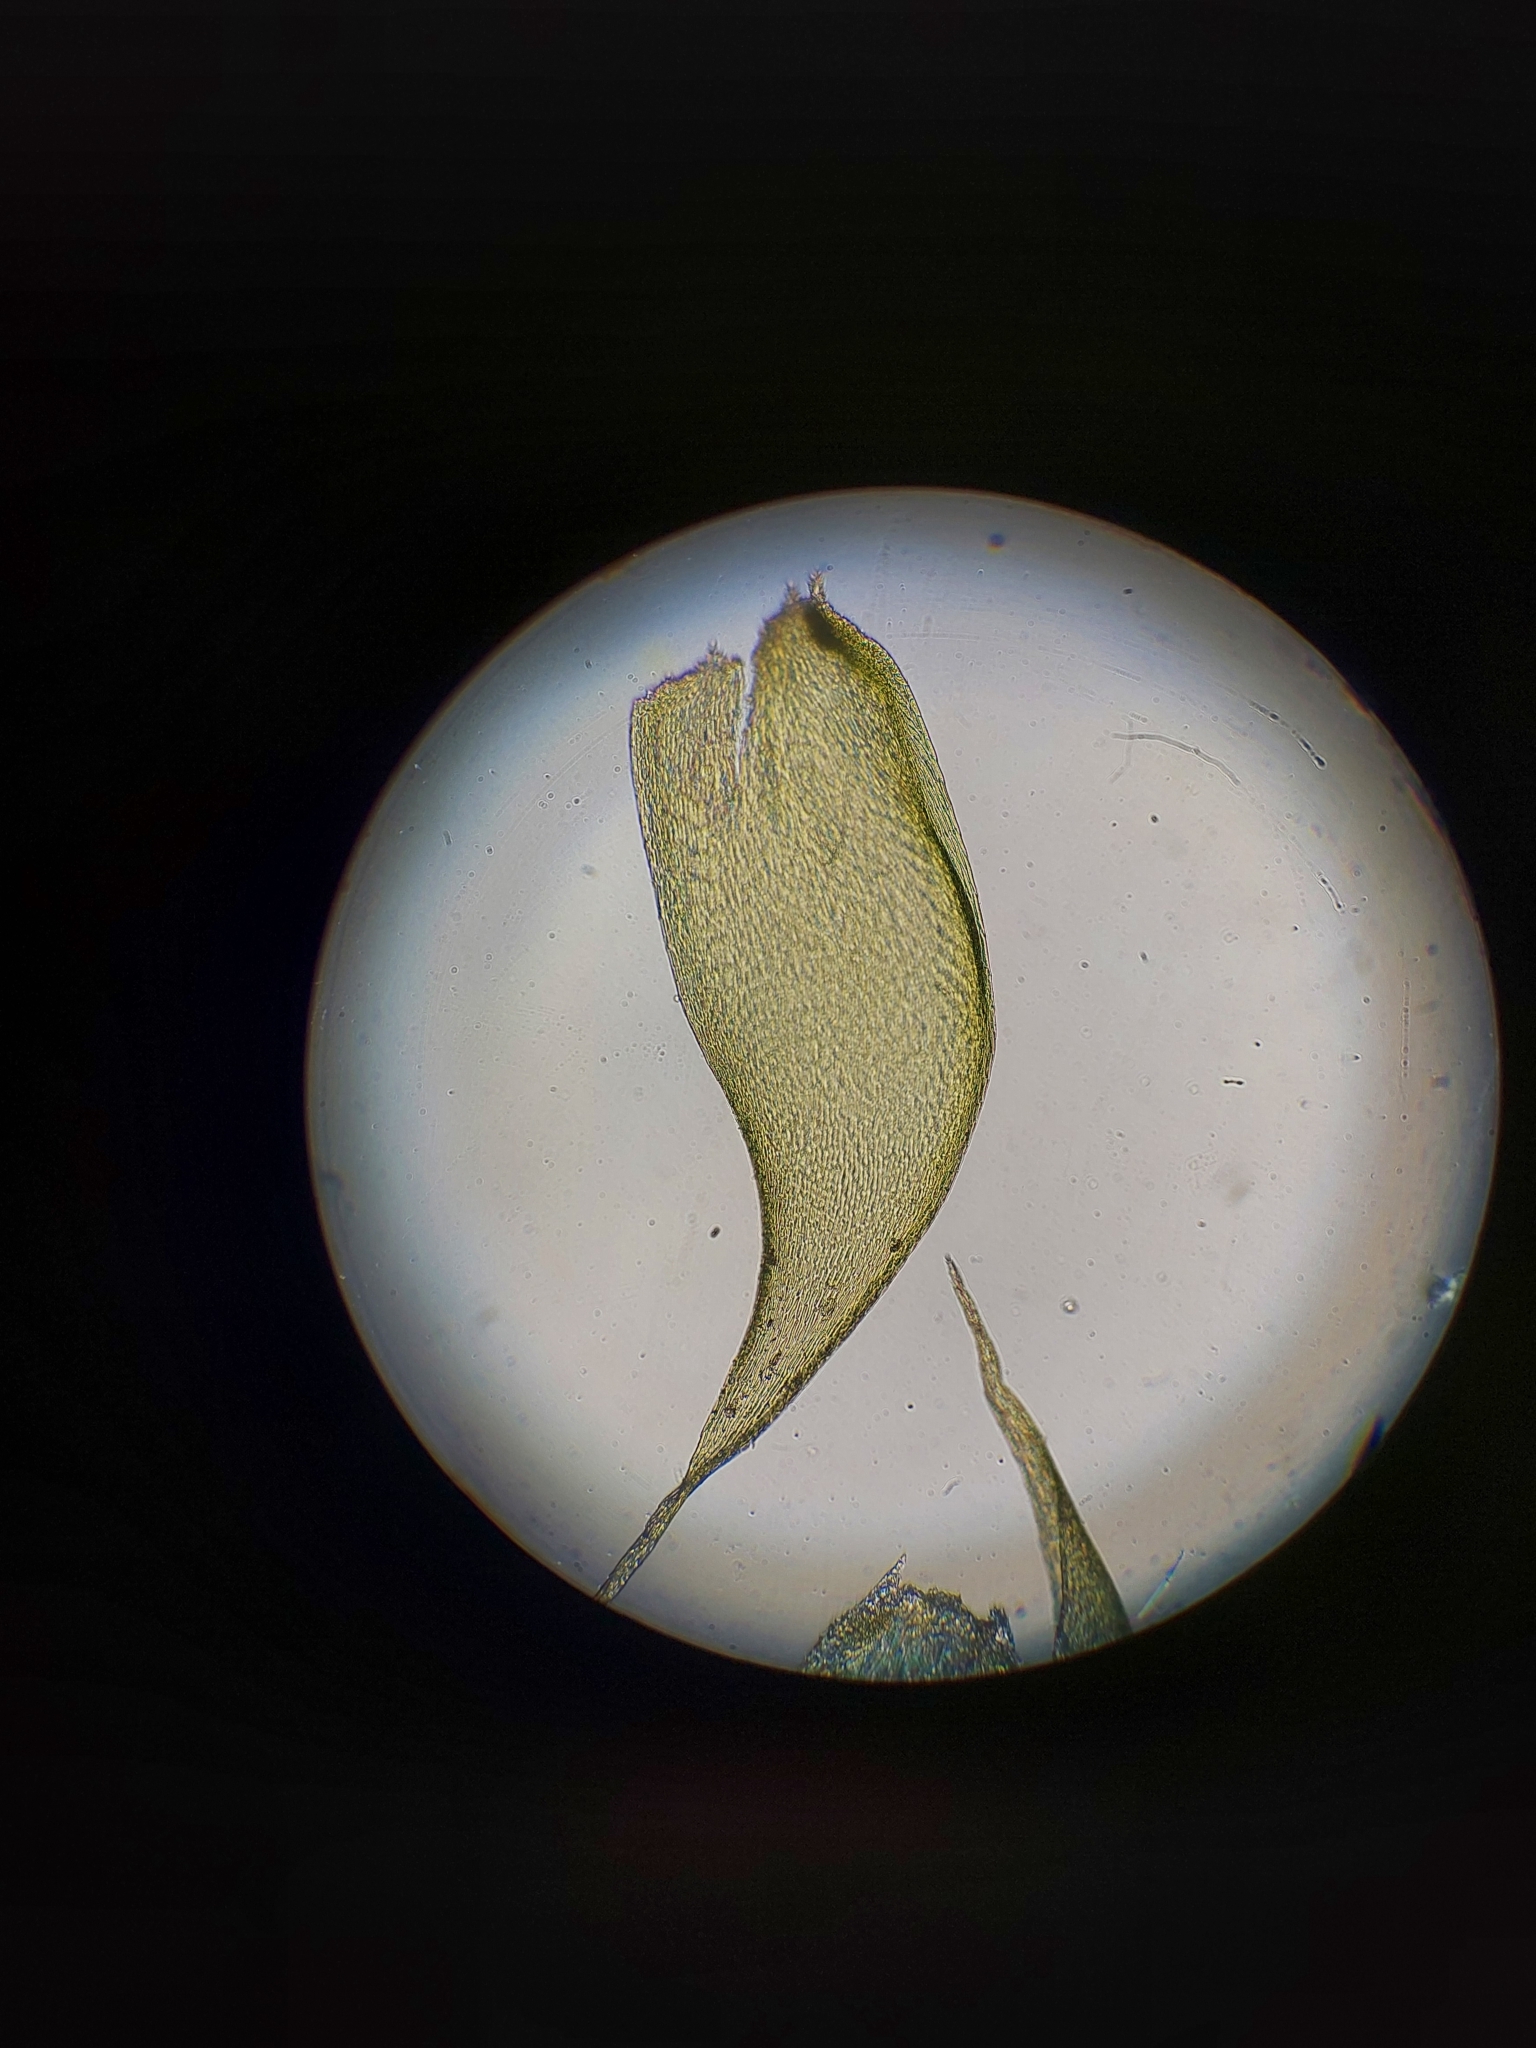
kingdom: Plantae
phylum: Bryophyta
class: Bryopsida
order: Hypnales
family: Hypnaceae
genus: Hypnum
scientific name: Hypnum cupressiforme
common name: Cypress-leaved plait-moss
